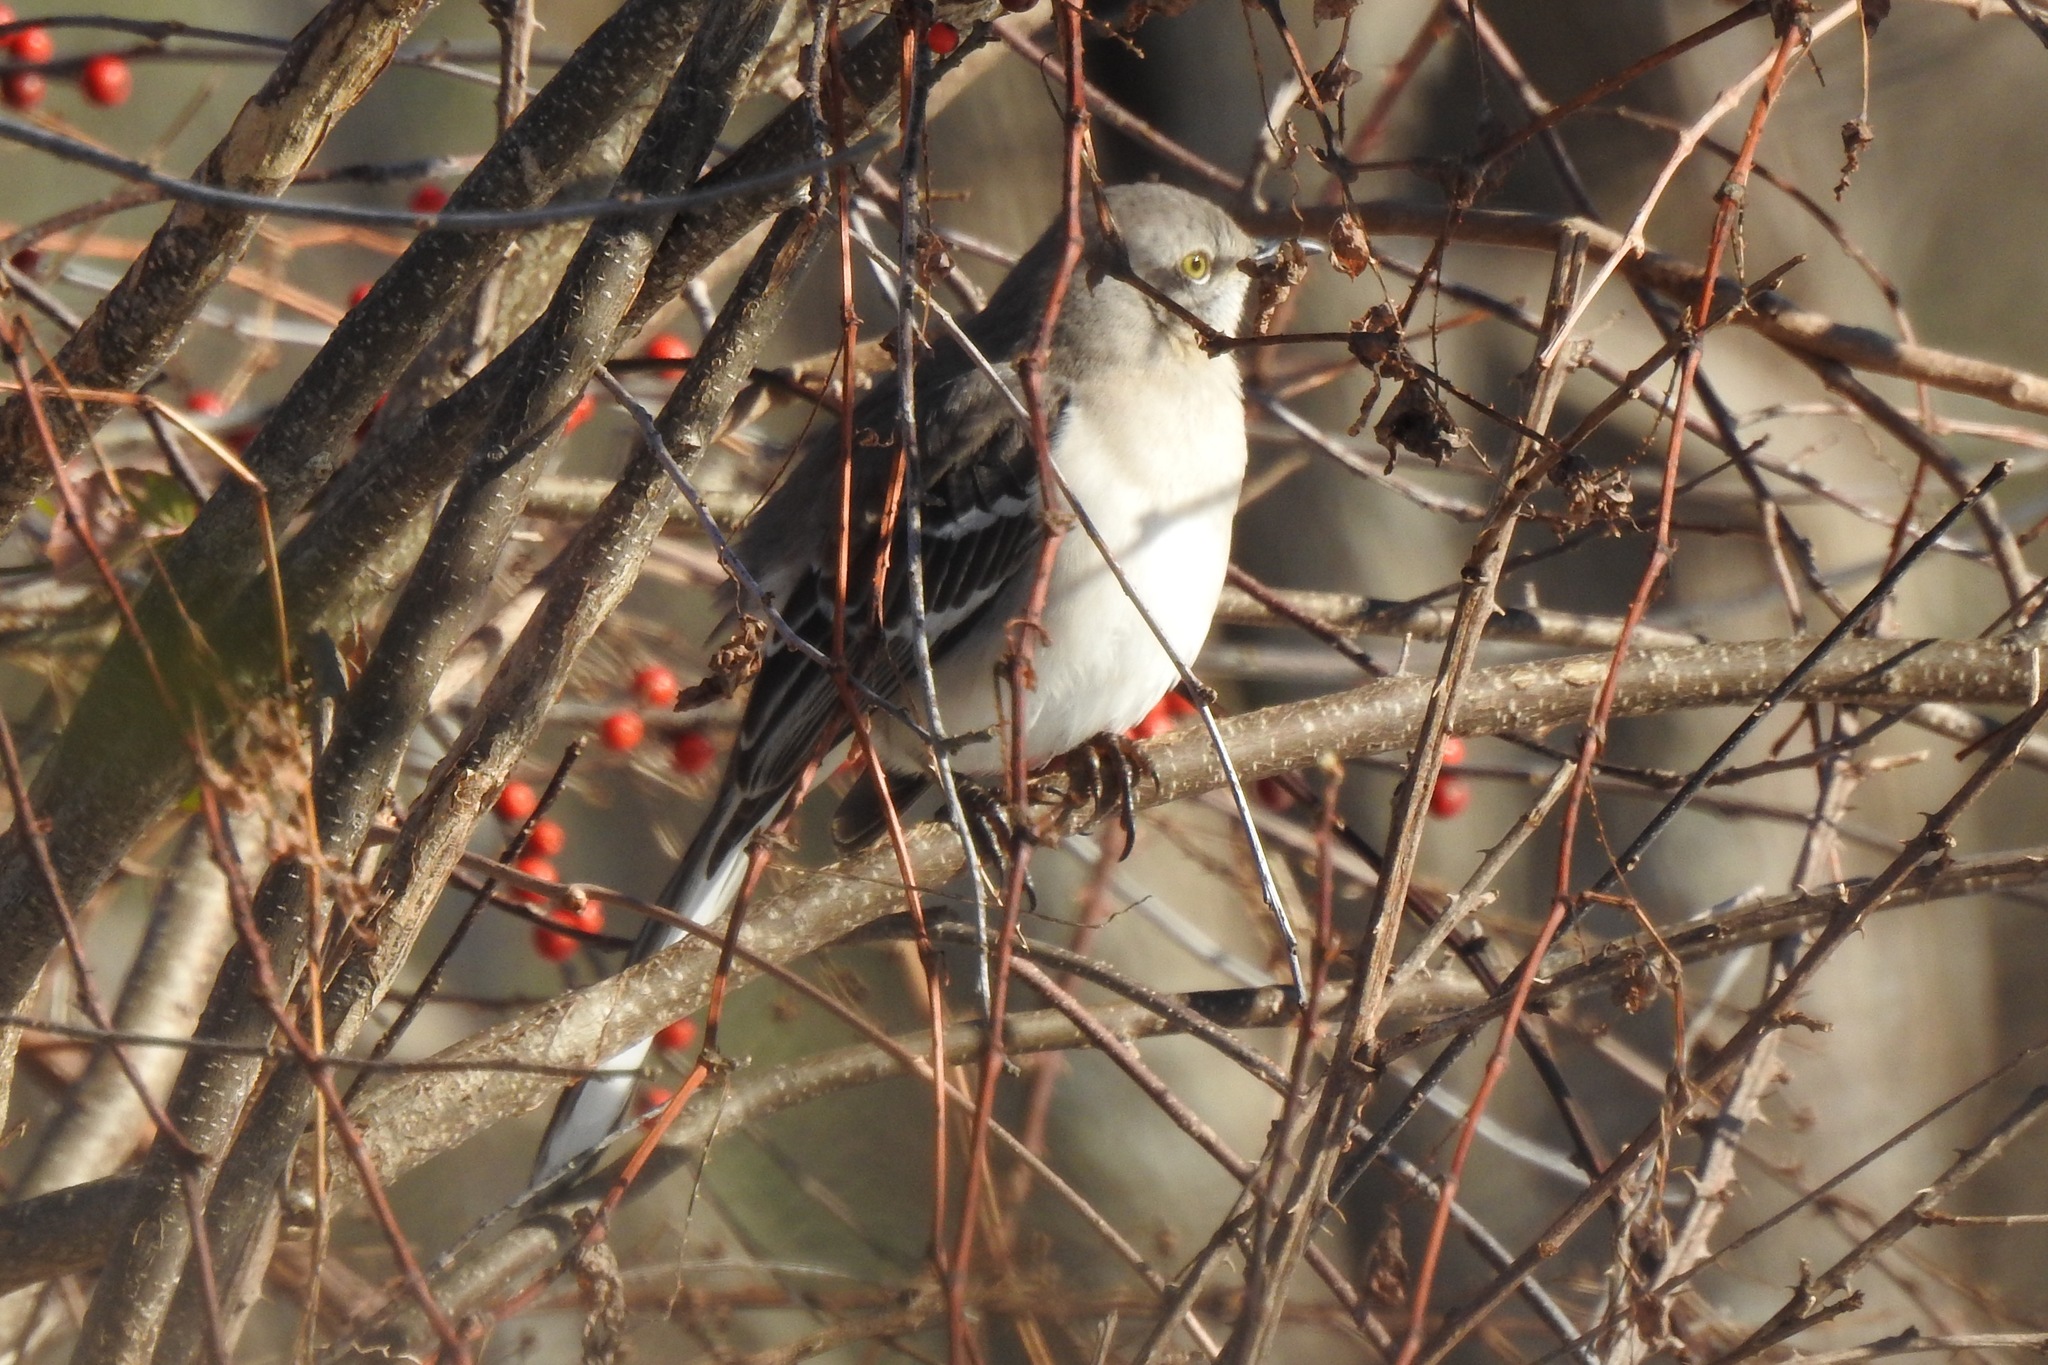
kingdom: Animalia
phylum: Chordata
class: Aves
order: Passeriformes
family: Mimidae
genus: Mimus
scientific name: Mimus polyglottos
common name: Northern mockingbird
